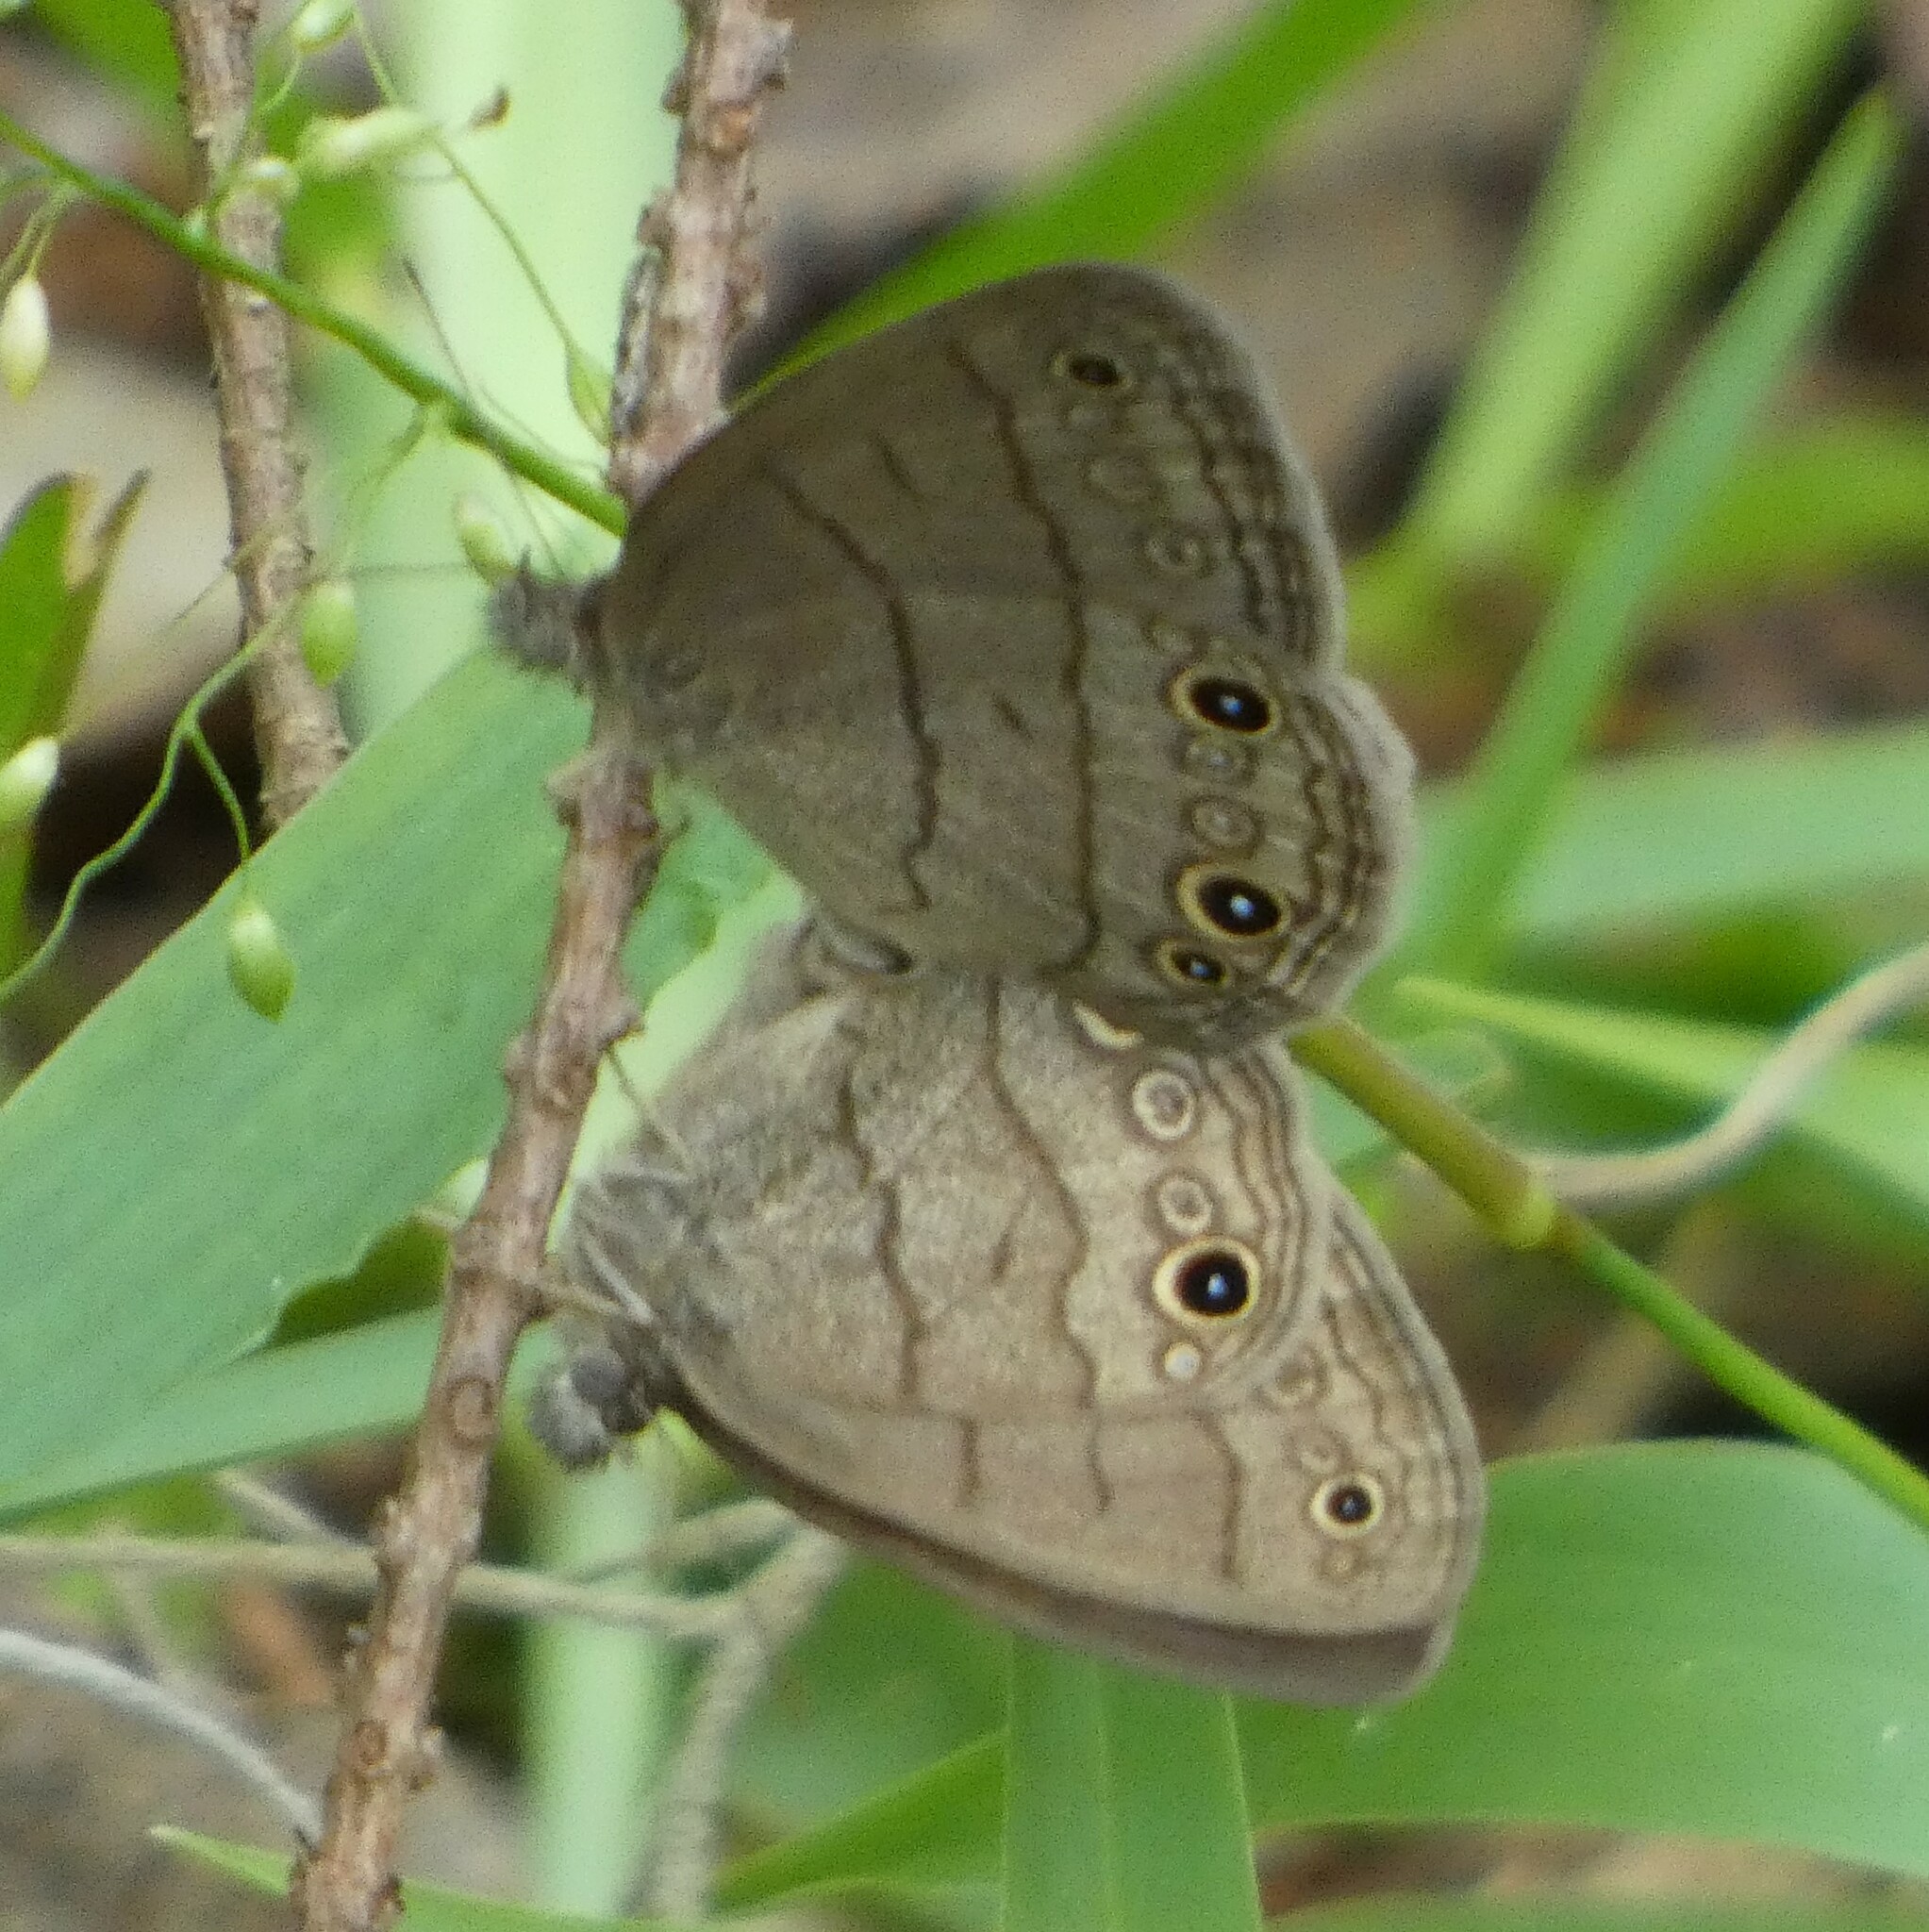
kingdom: Animalia
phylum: Arthropoda
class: Insecta
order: Lepidoptera
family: Nymphalidae
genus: Hermeuptychia
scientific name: Hermeuptychia hermes
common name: Hermes satyr
